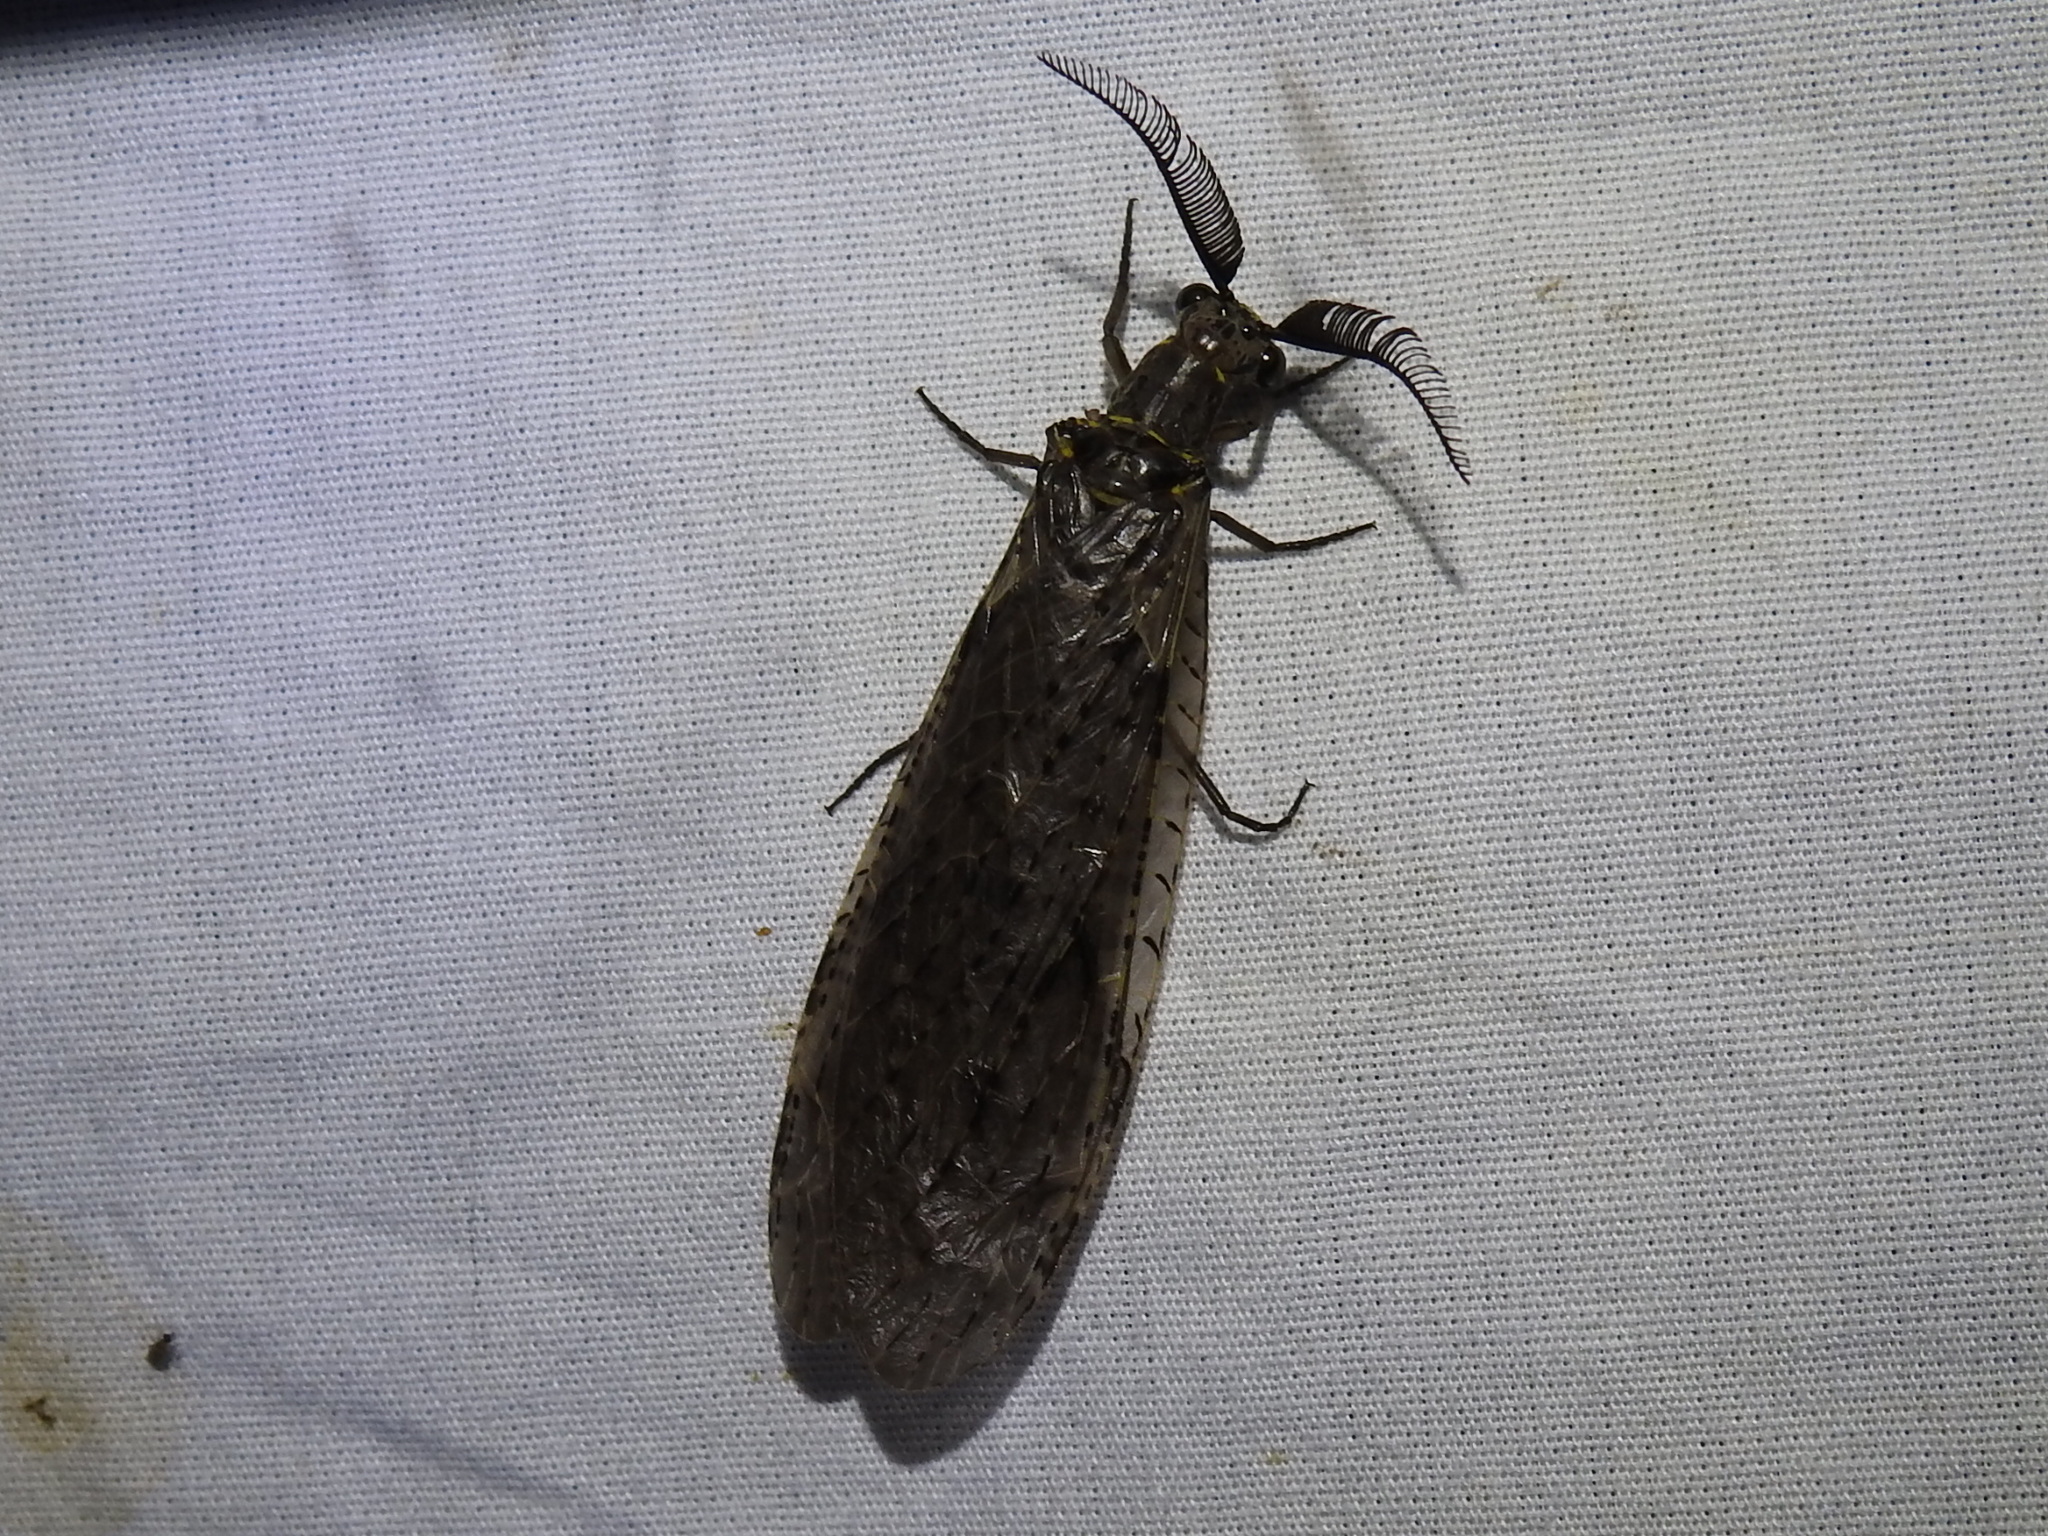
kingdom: Animalia
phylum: Arthropoda
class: Insecta
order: Megaloptera
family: Corydalidae
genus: Chauliodes
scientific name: Chauliodes rastricornis
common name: Spring fishfly
